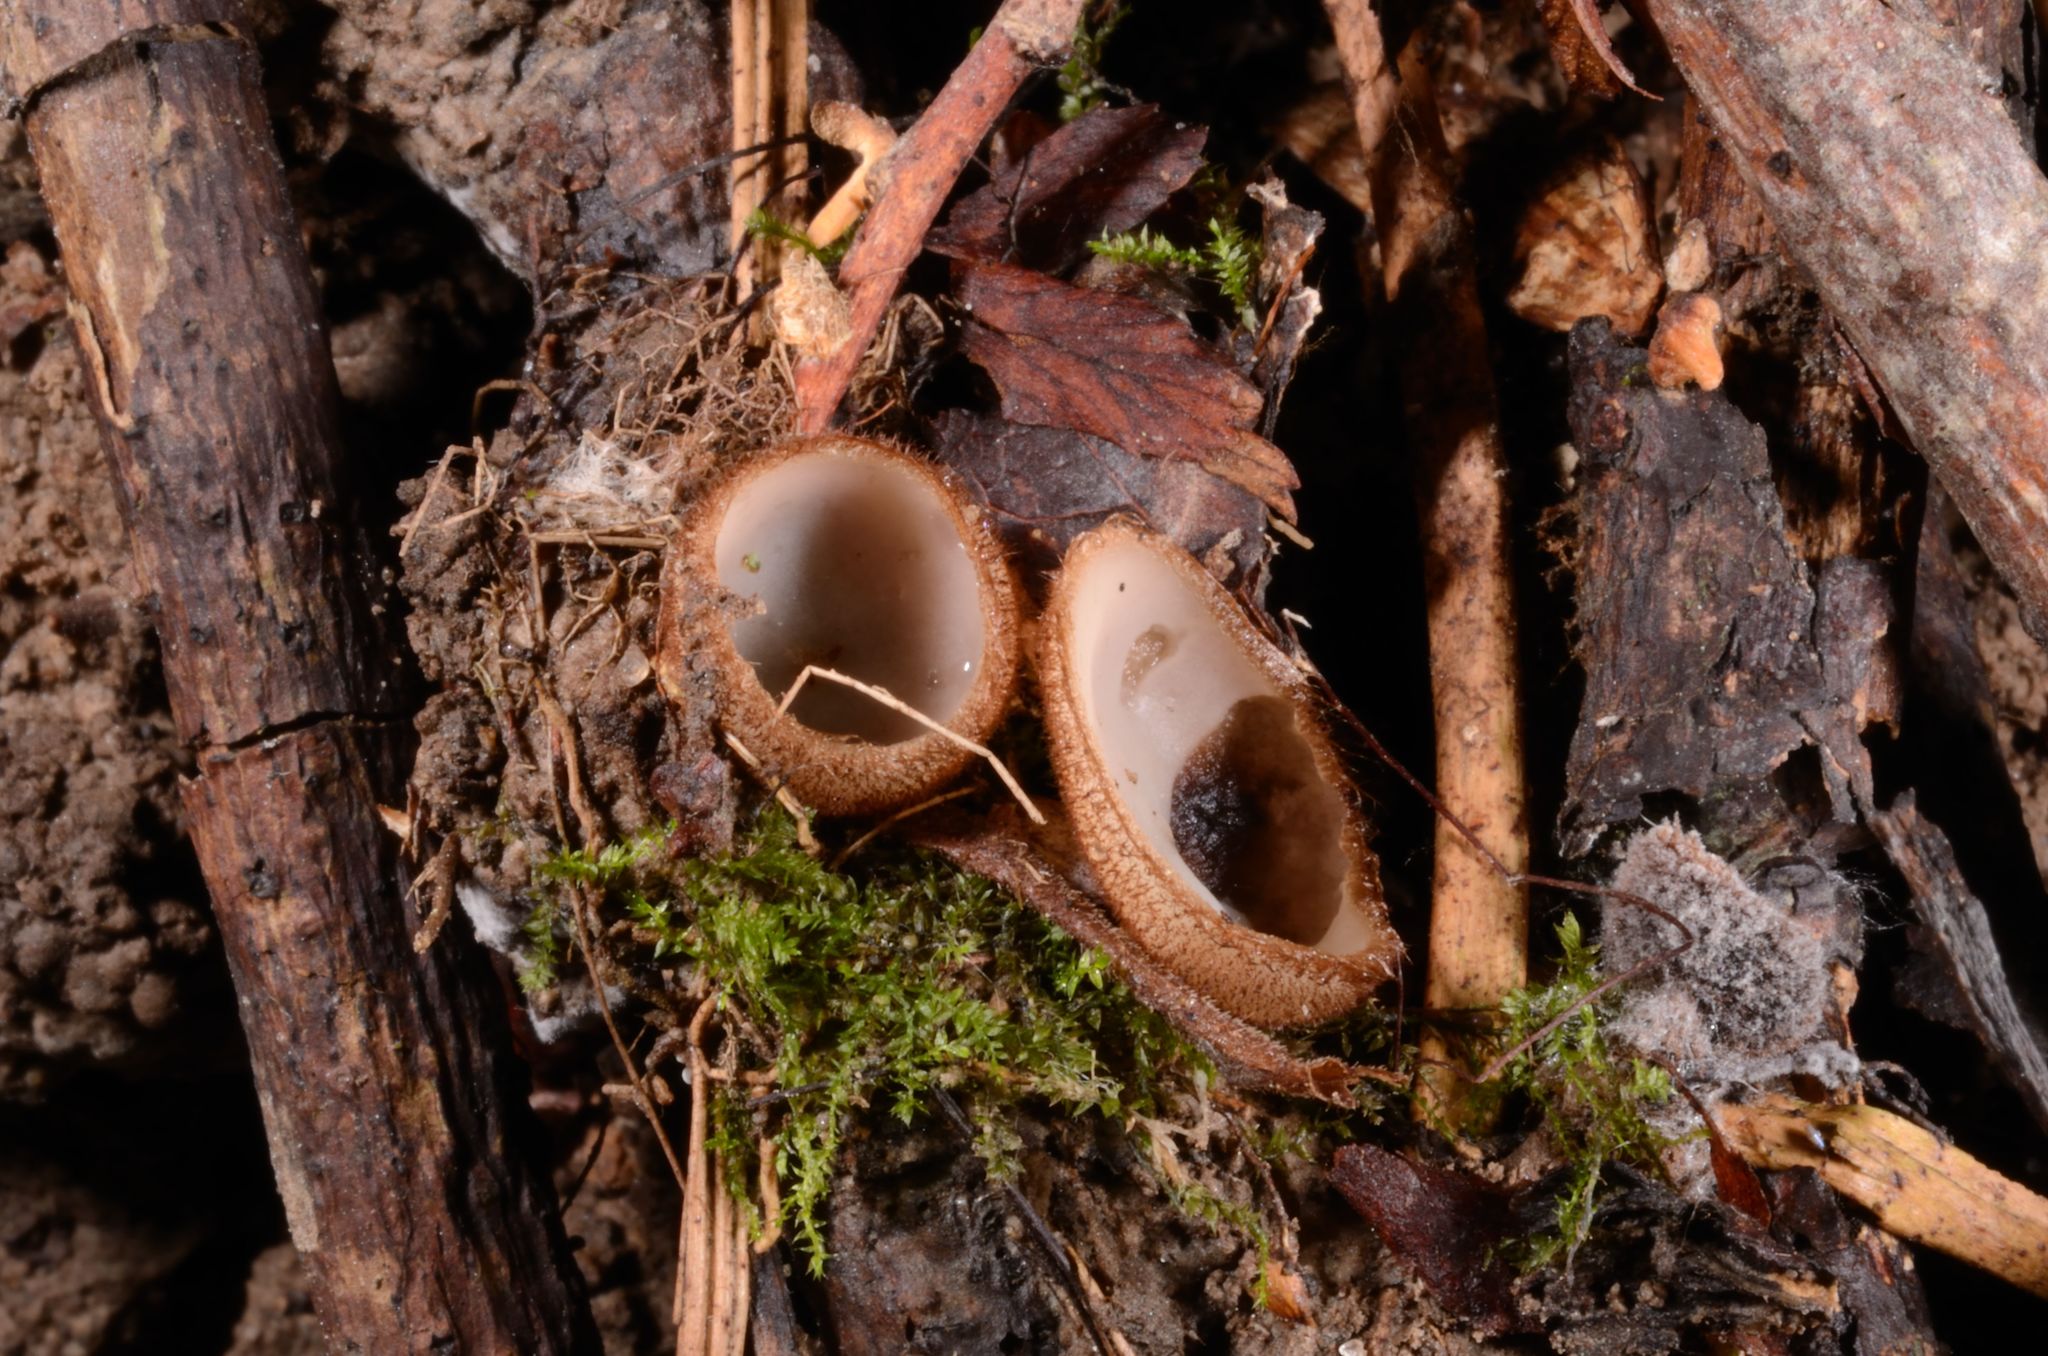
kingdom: Fungi
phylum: Ascomycota
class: Pezizomycetes
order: Pezizales
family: Pyronemataceae
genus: Humaria
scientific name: Humaria hemisphaerica
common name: Glazed cup
